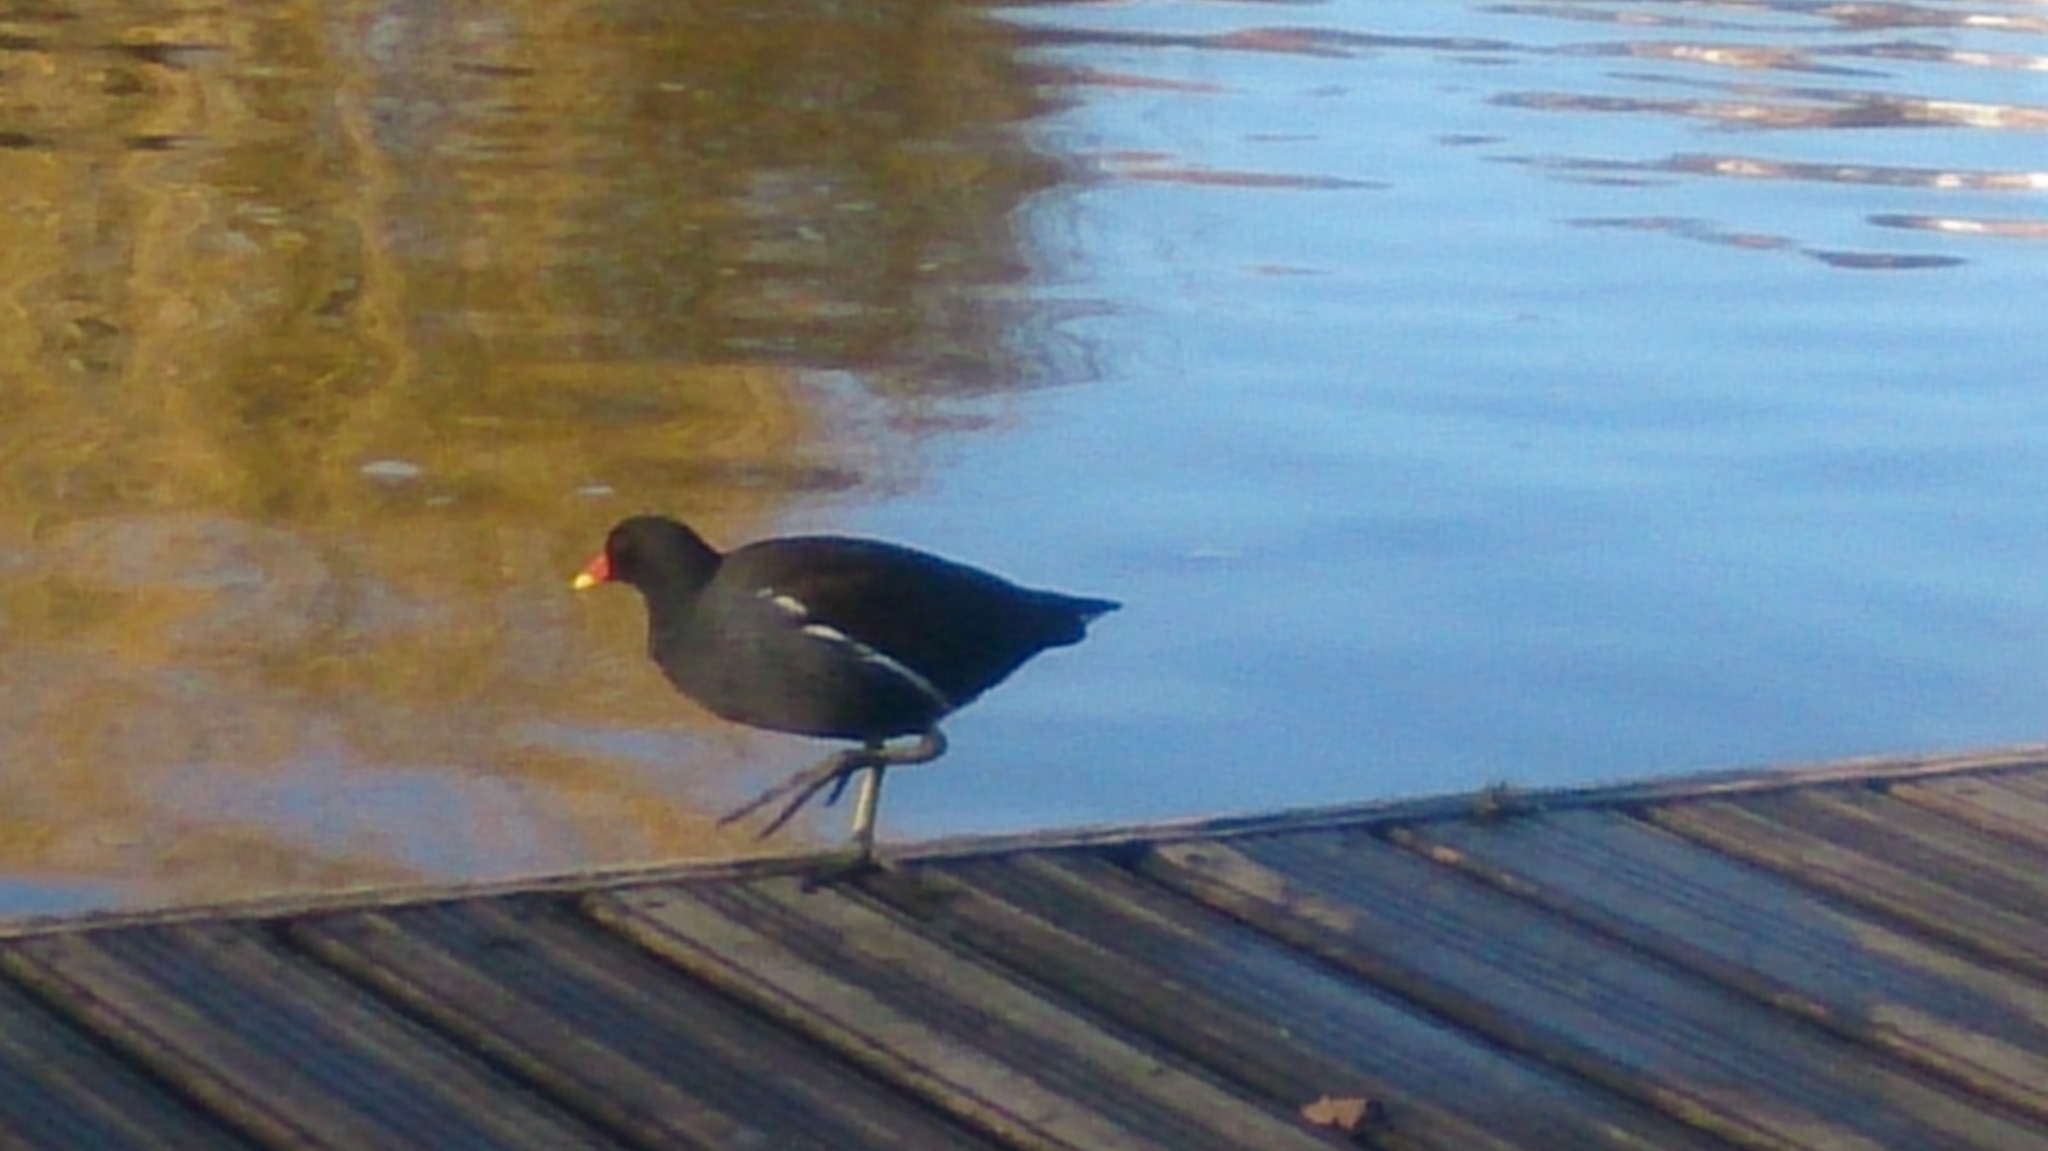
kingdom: Animalia
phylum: Chordata
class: Aves
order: Gruiformes
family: Rallidae
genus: Gallinula
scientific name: Gallinula chloropus
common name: Common moorhen
